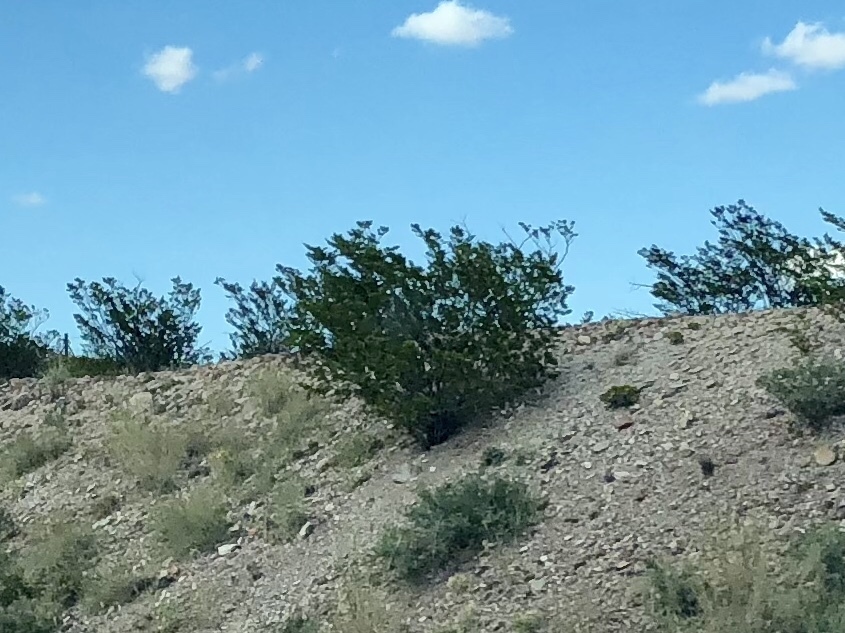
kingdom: Plantae
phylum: Tracheophyta
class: Magnoliopsida
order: Zygophyllales
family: Zygophyllaceae
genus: Larrea
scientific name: Larrea tridentata
